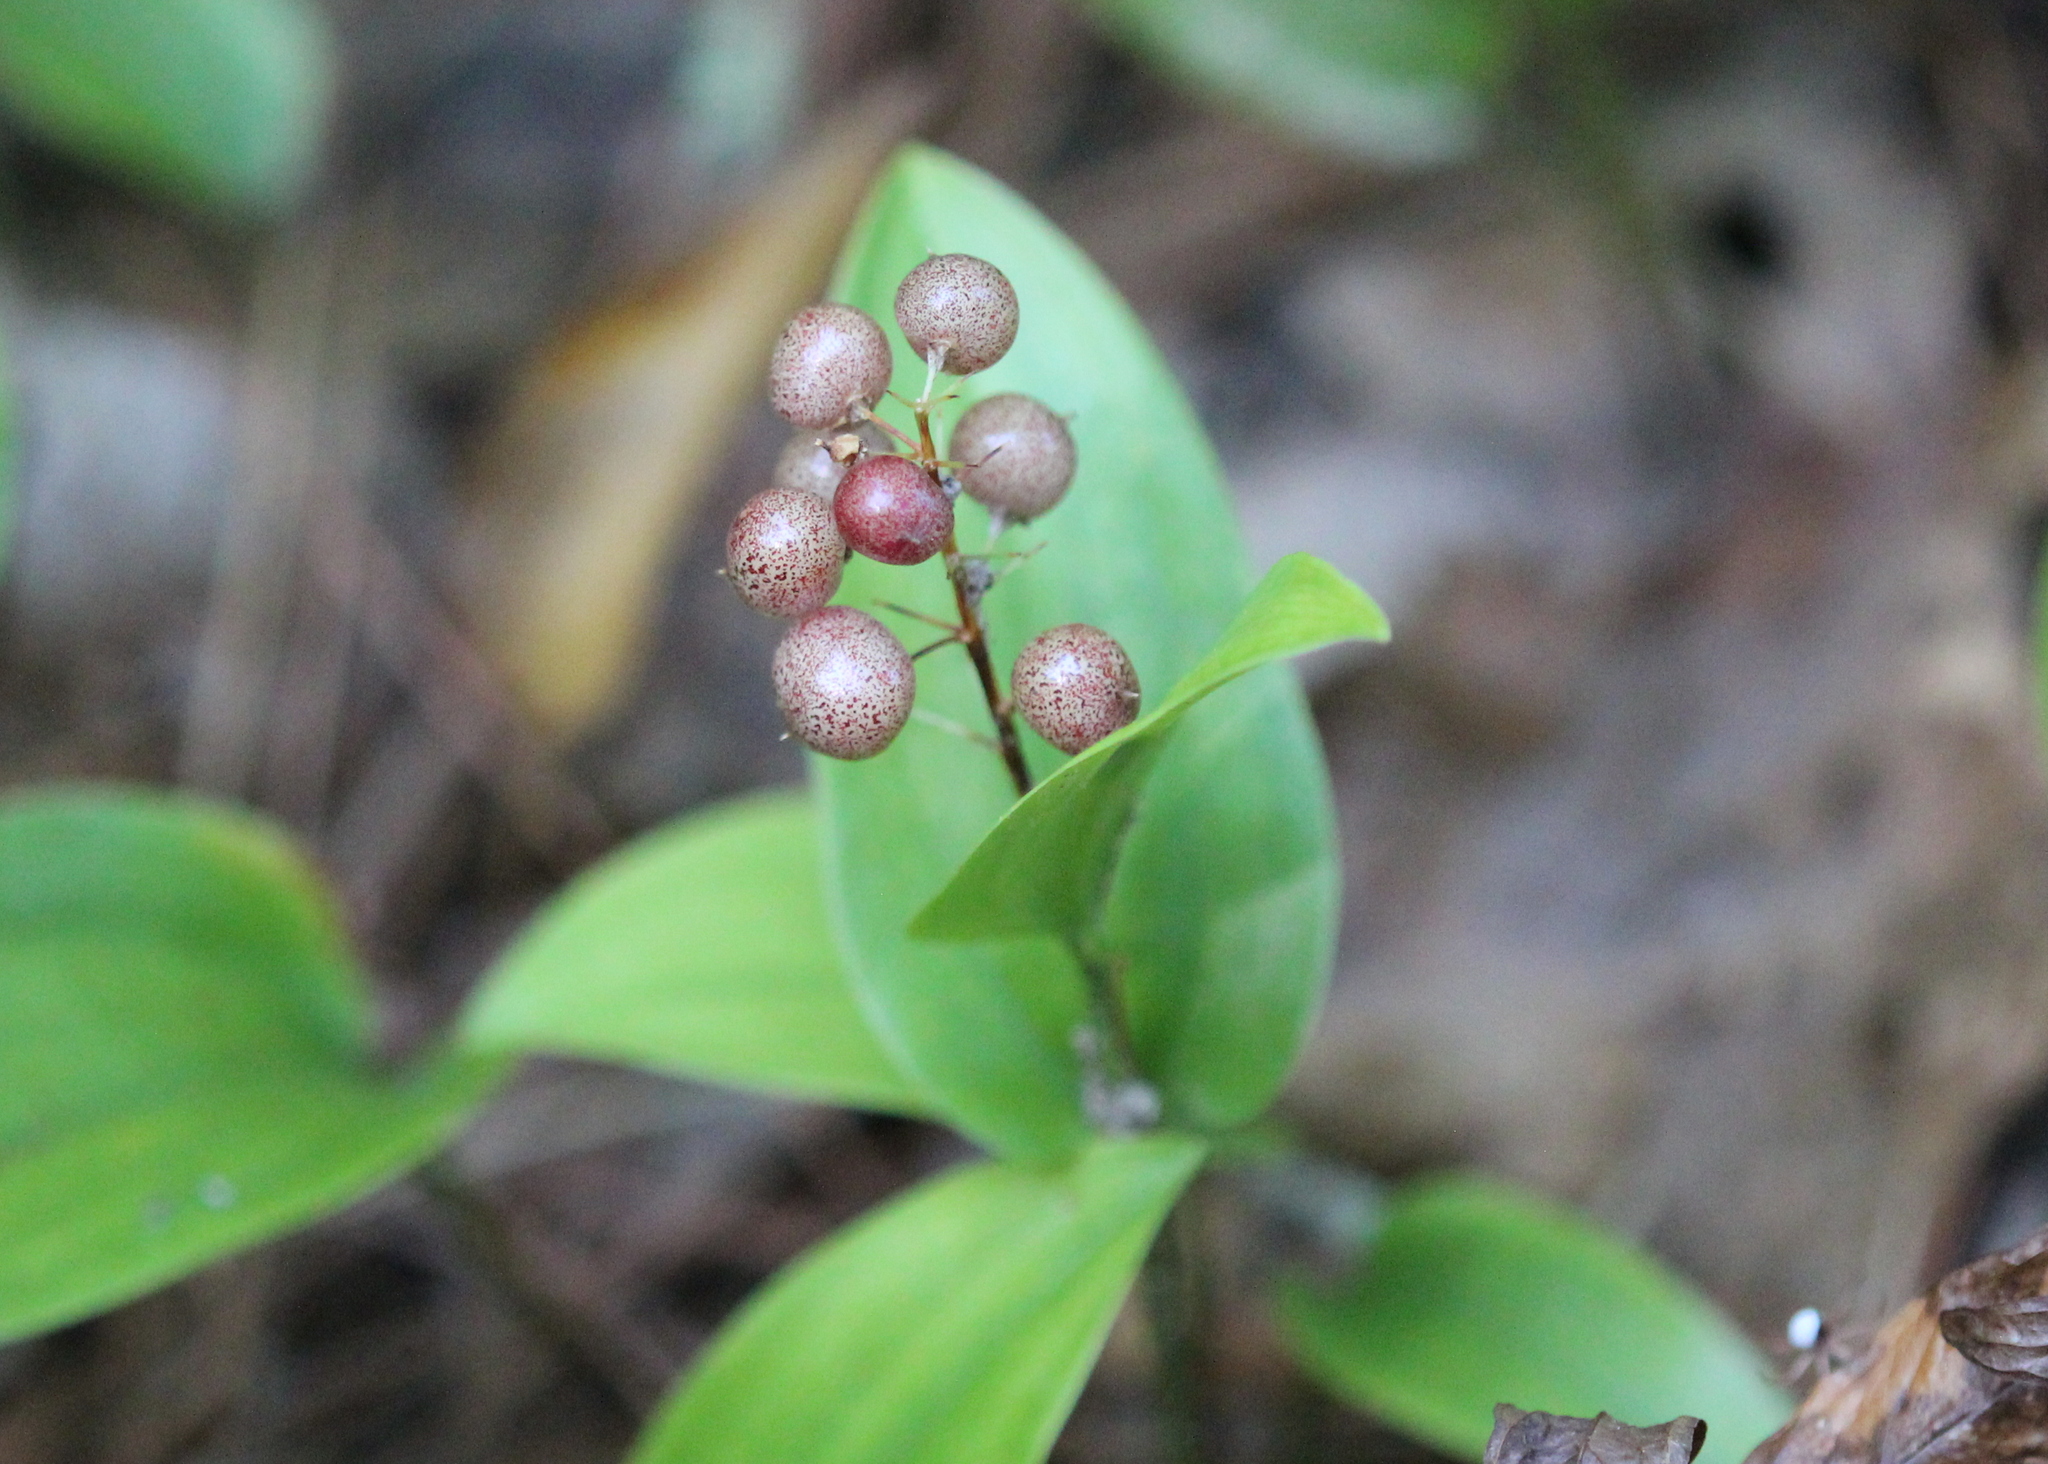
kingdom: Plantae
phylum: Tracheophyta
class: Liliopsida
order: Asparagales
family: Asparagaceae
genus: Maianthemum
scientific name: Maianthemum canadense
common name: False lily-of-the-valley
